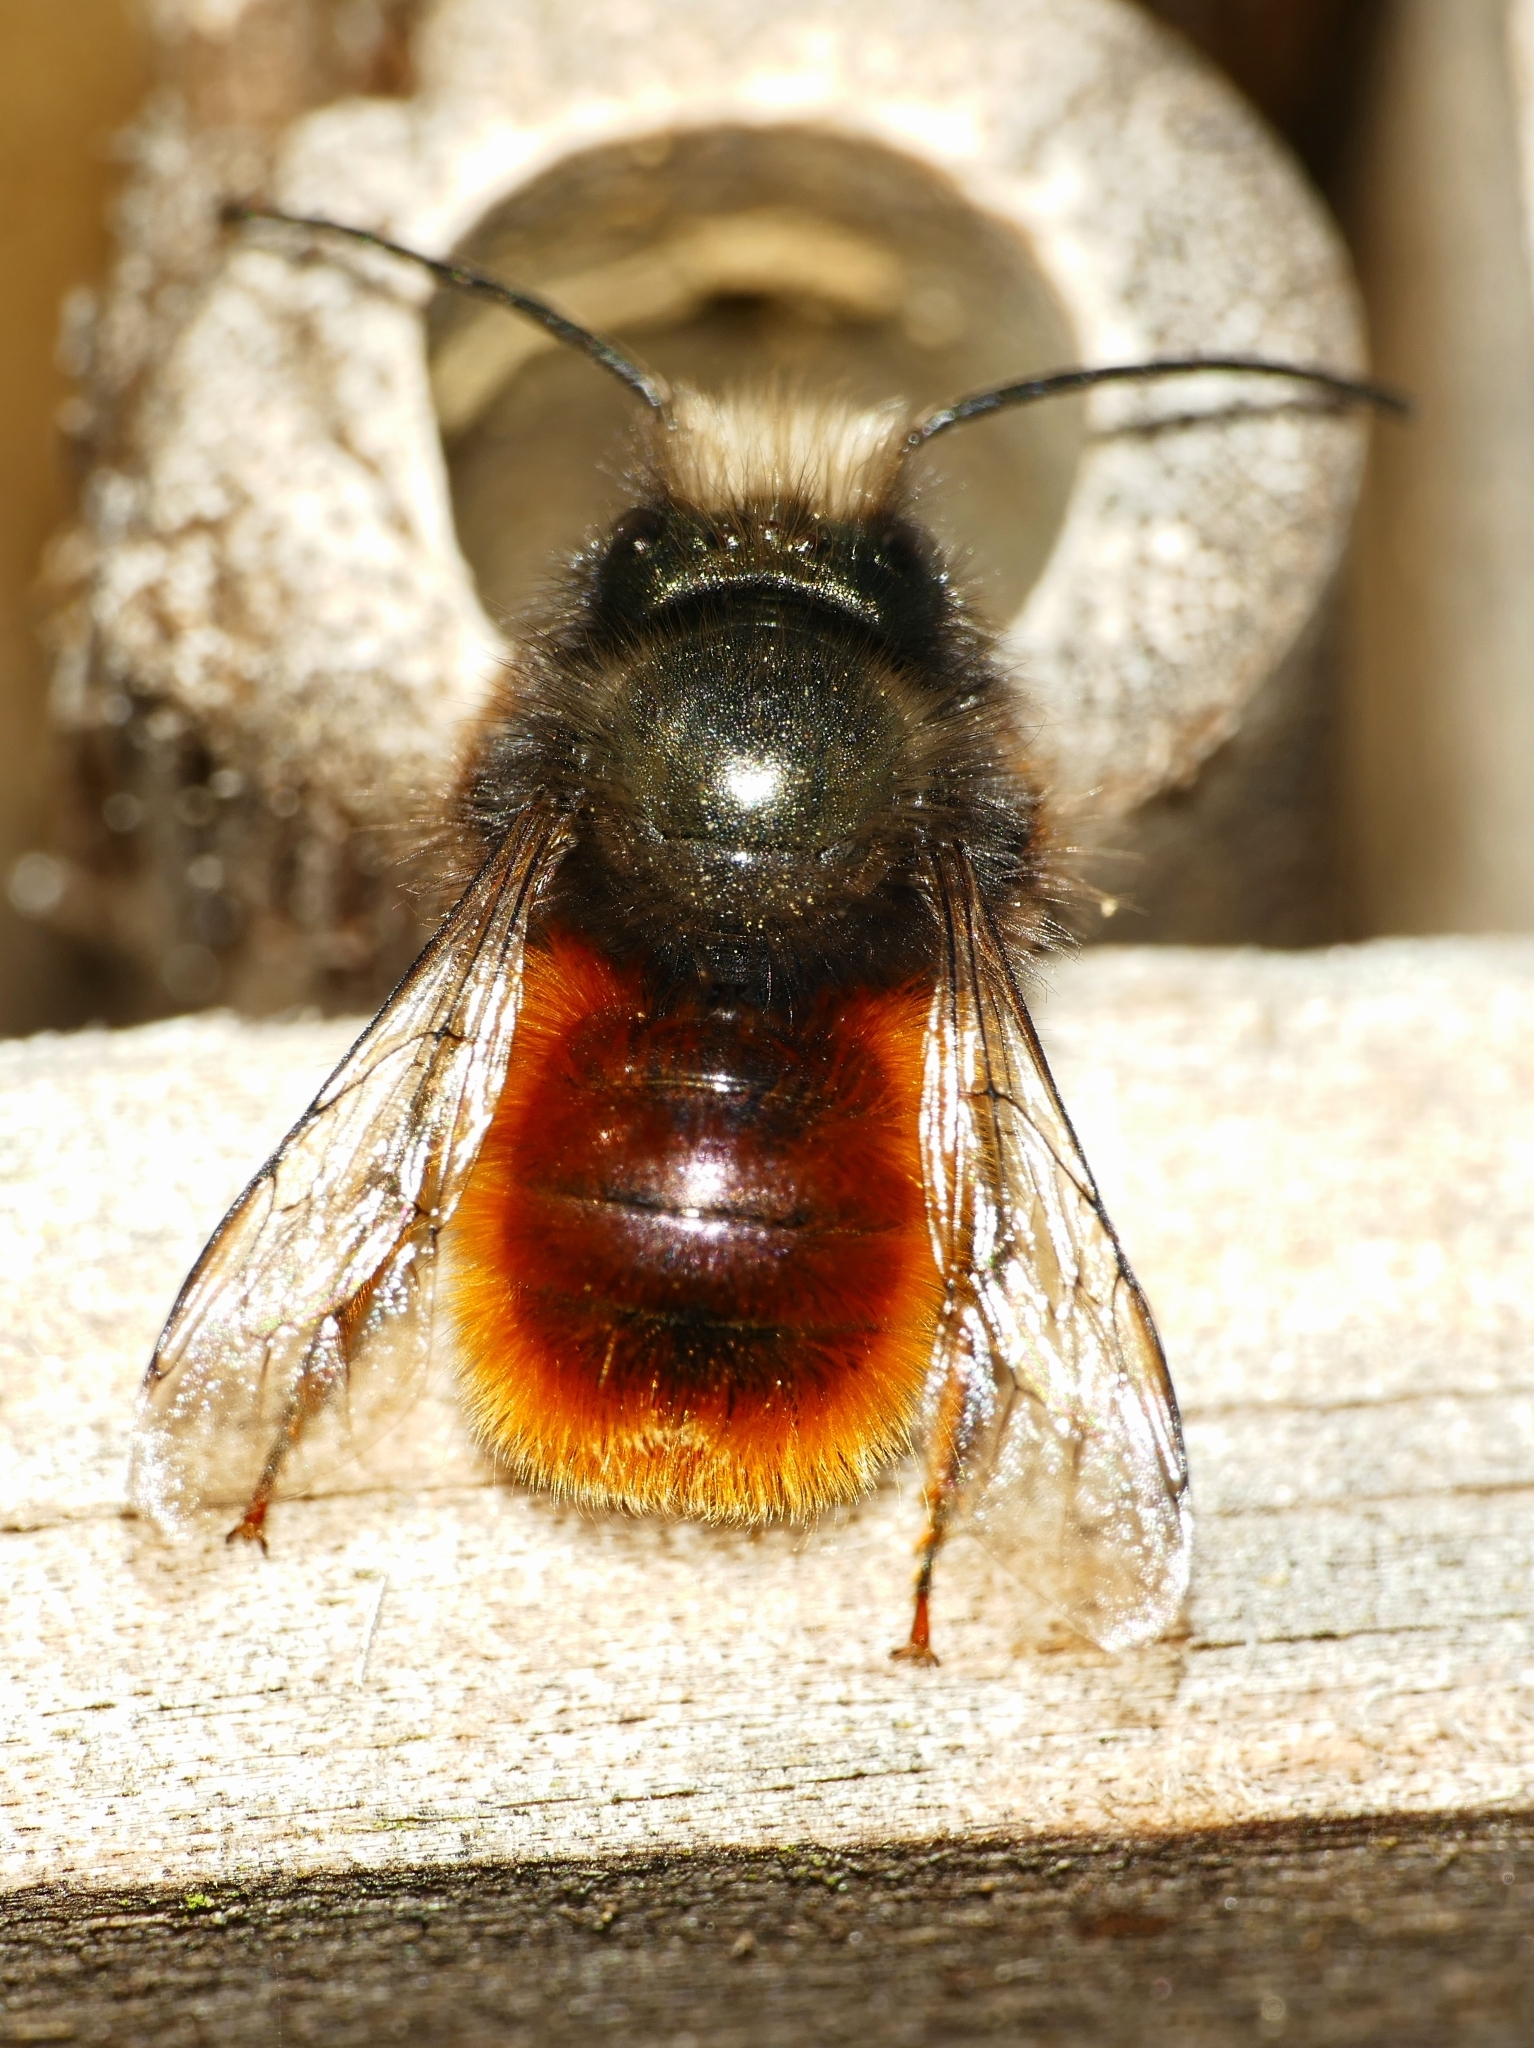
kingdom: Animalia
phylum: Arthropoda
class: Insecta
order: Hymenoptera
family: Megachilidae
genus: Osmia
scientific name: Osmia cornuta
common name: Mason bee
